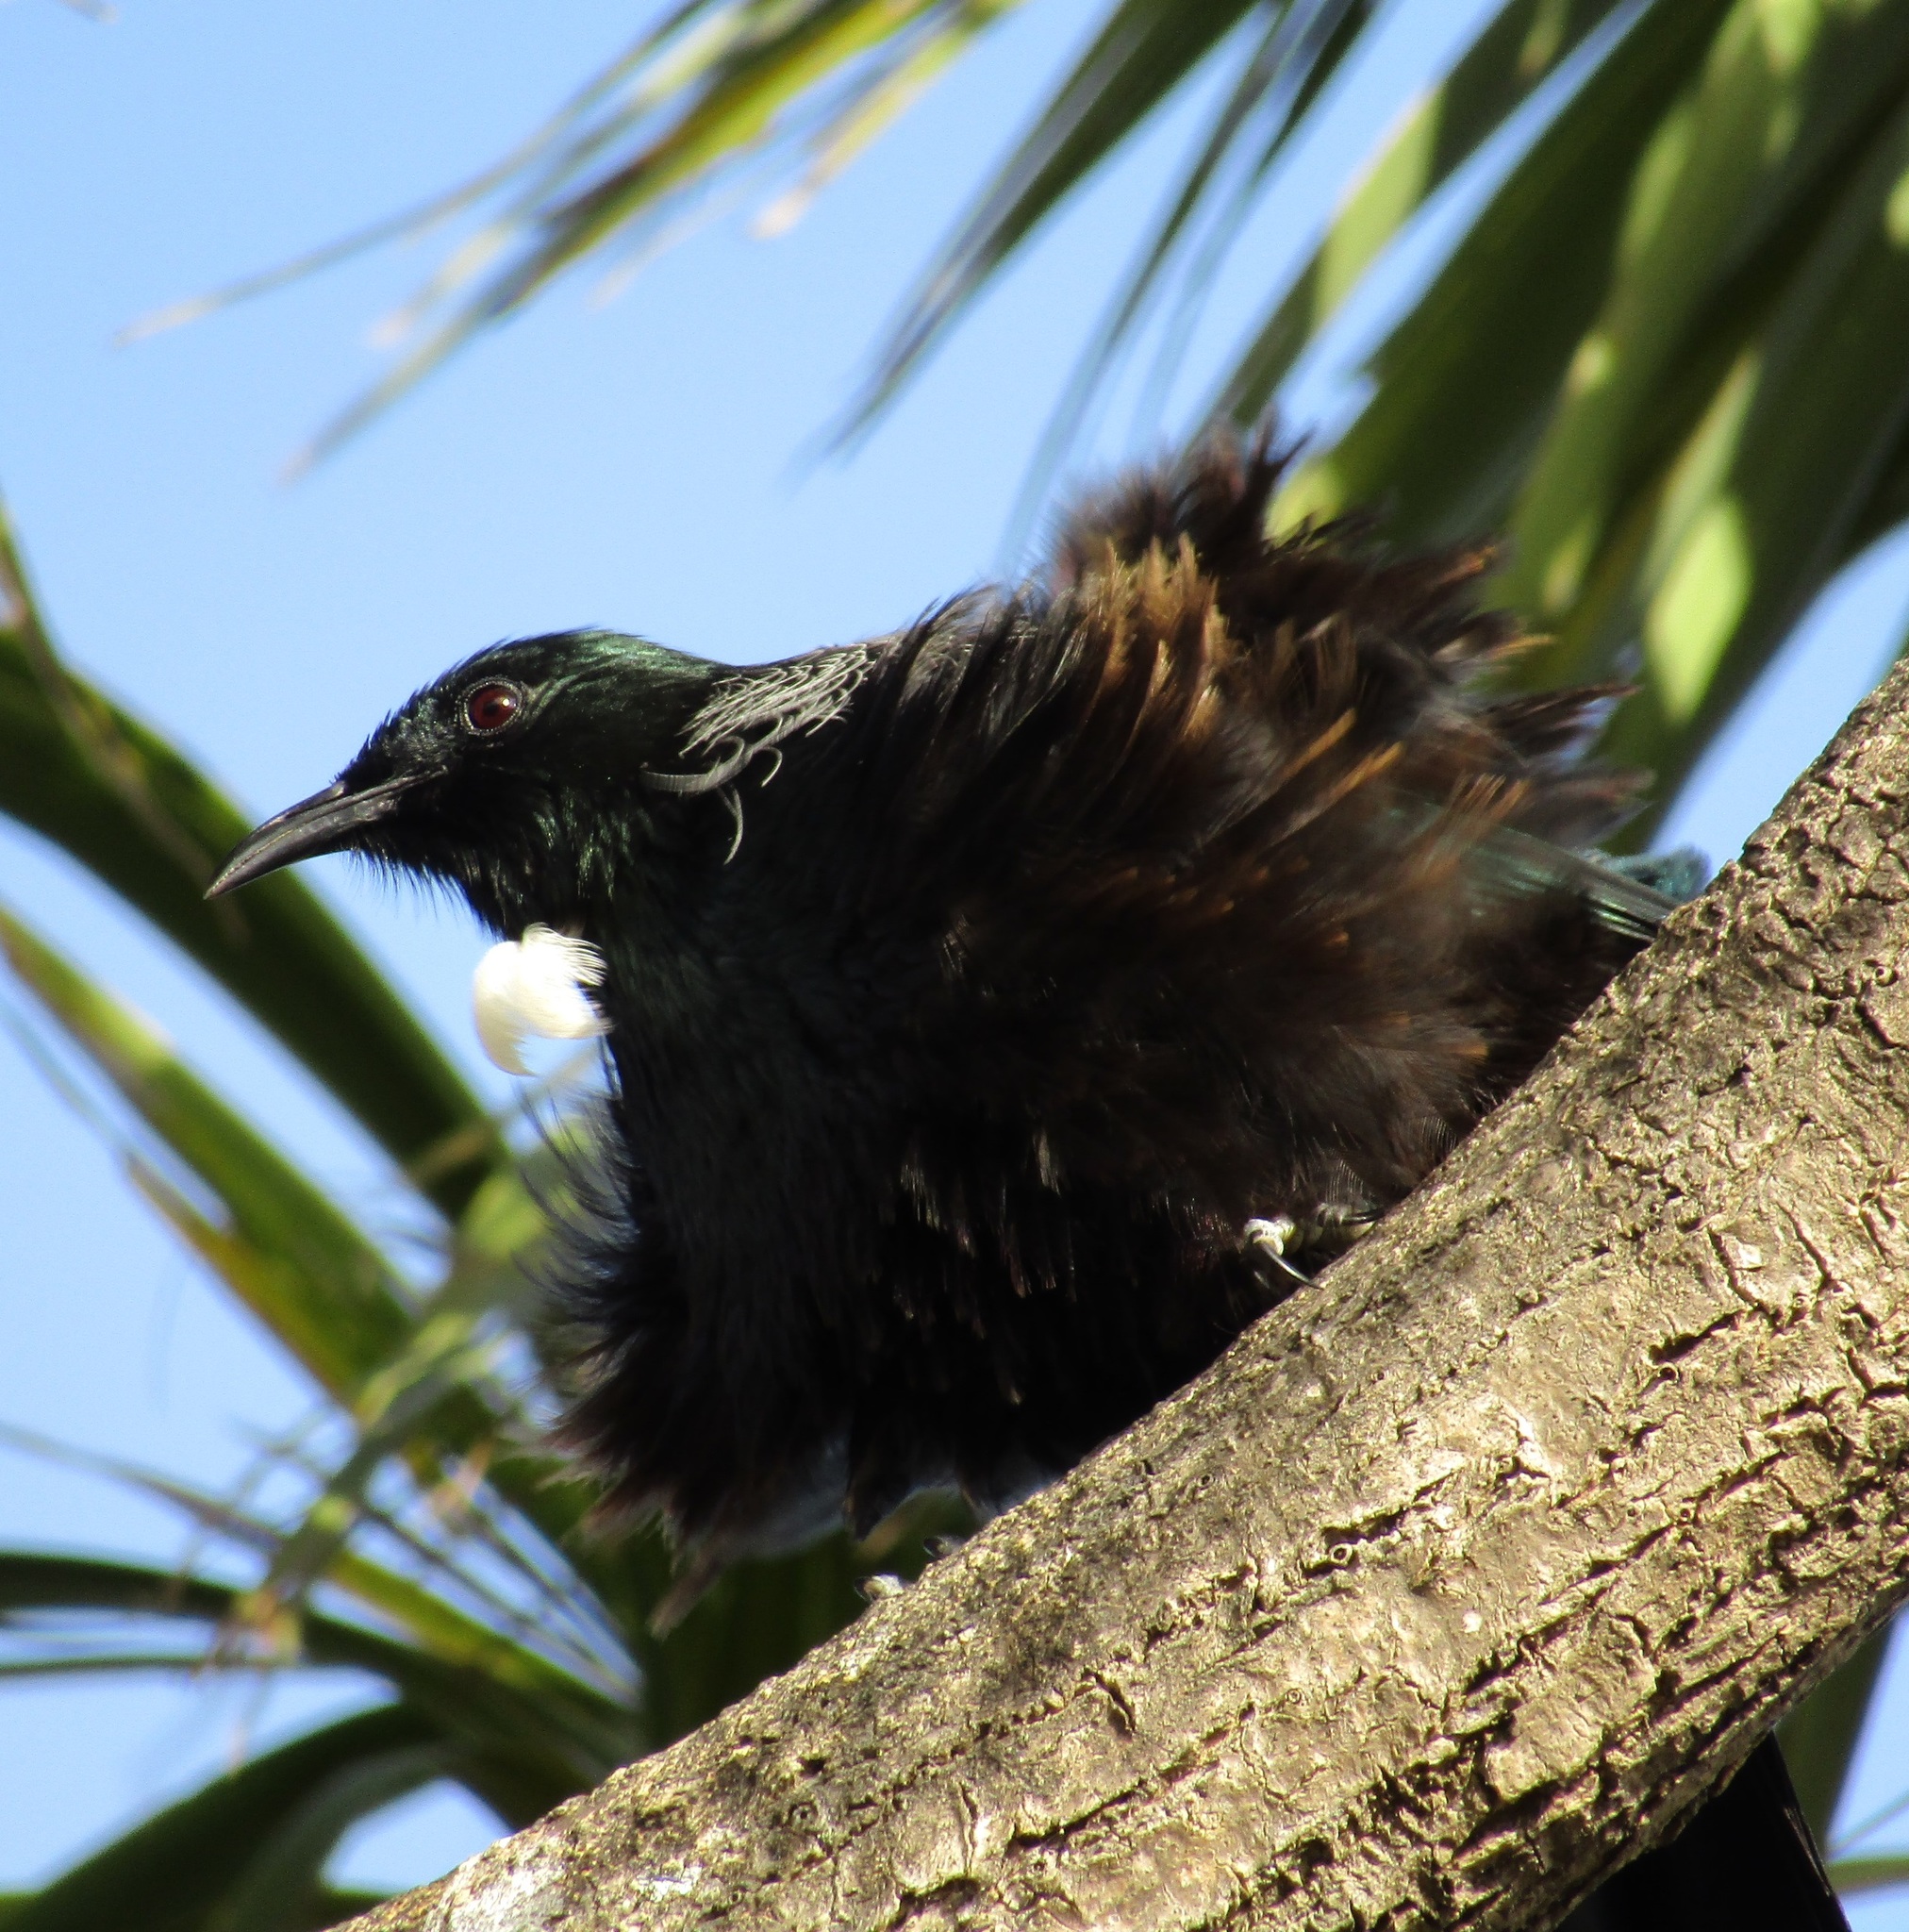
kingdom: Animalia
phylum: Chordata
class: Aves
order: Passeriformes
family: Meliphagidae
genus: Prosthemadera
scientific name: Prosthemadera novaeseelandiae
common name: Tui
